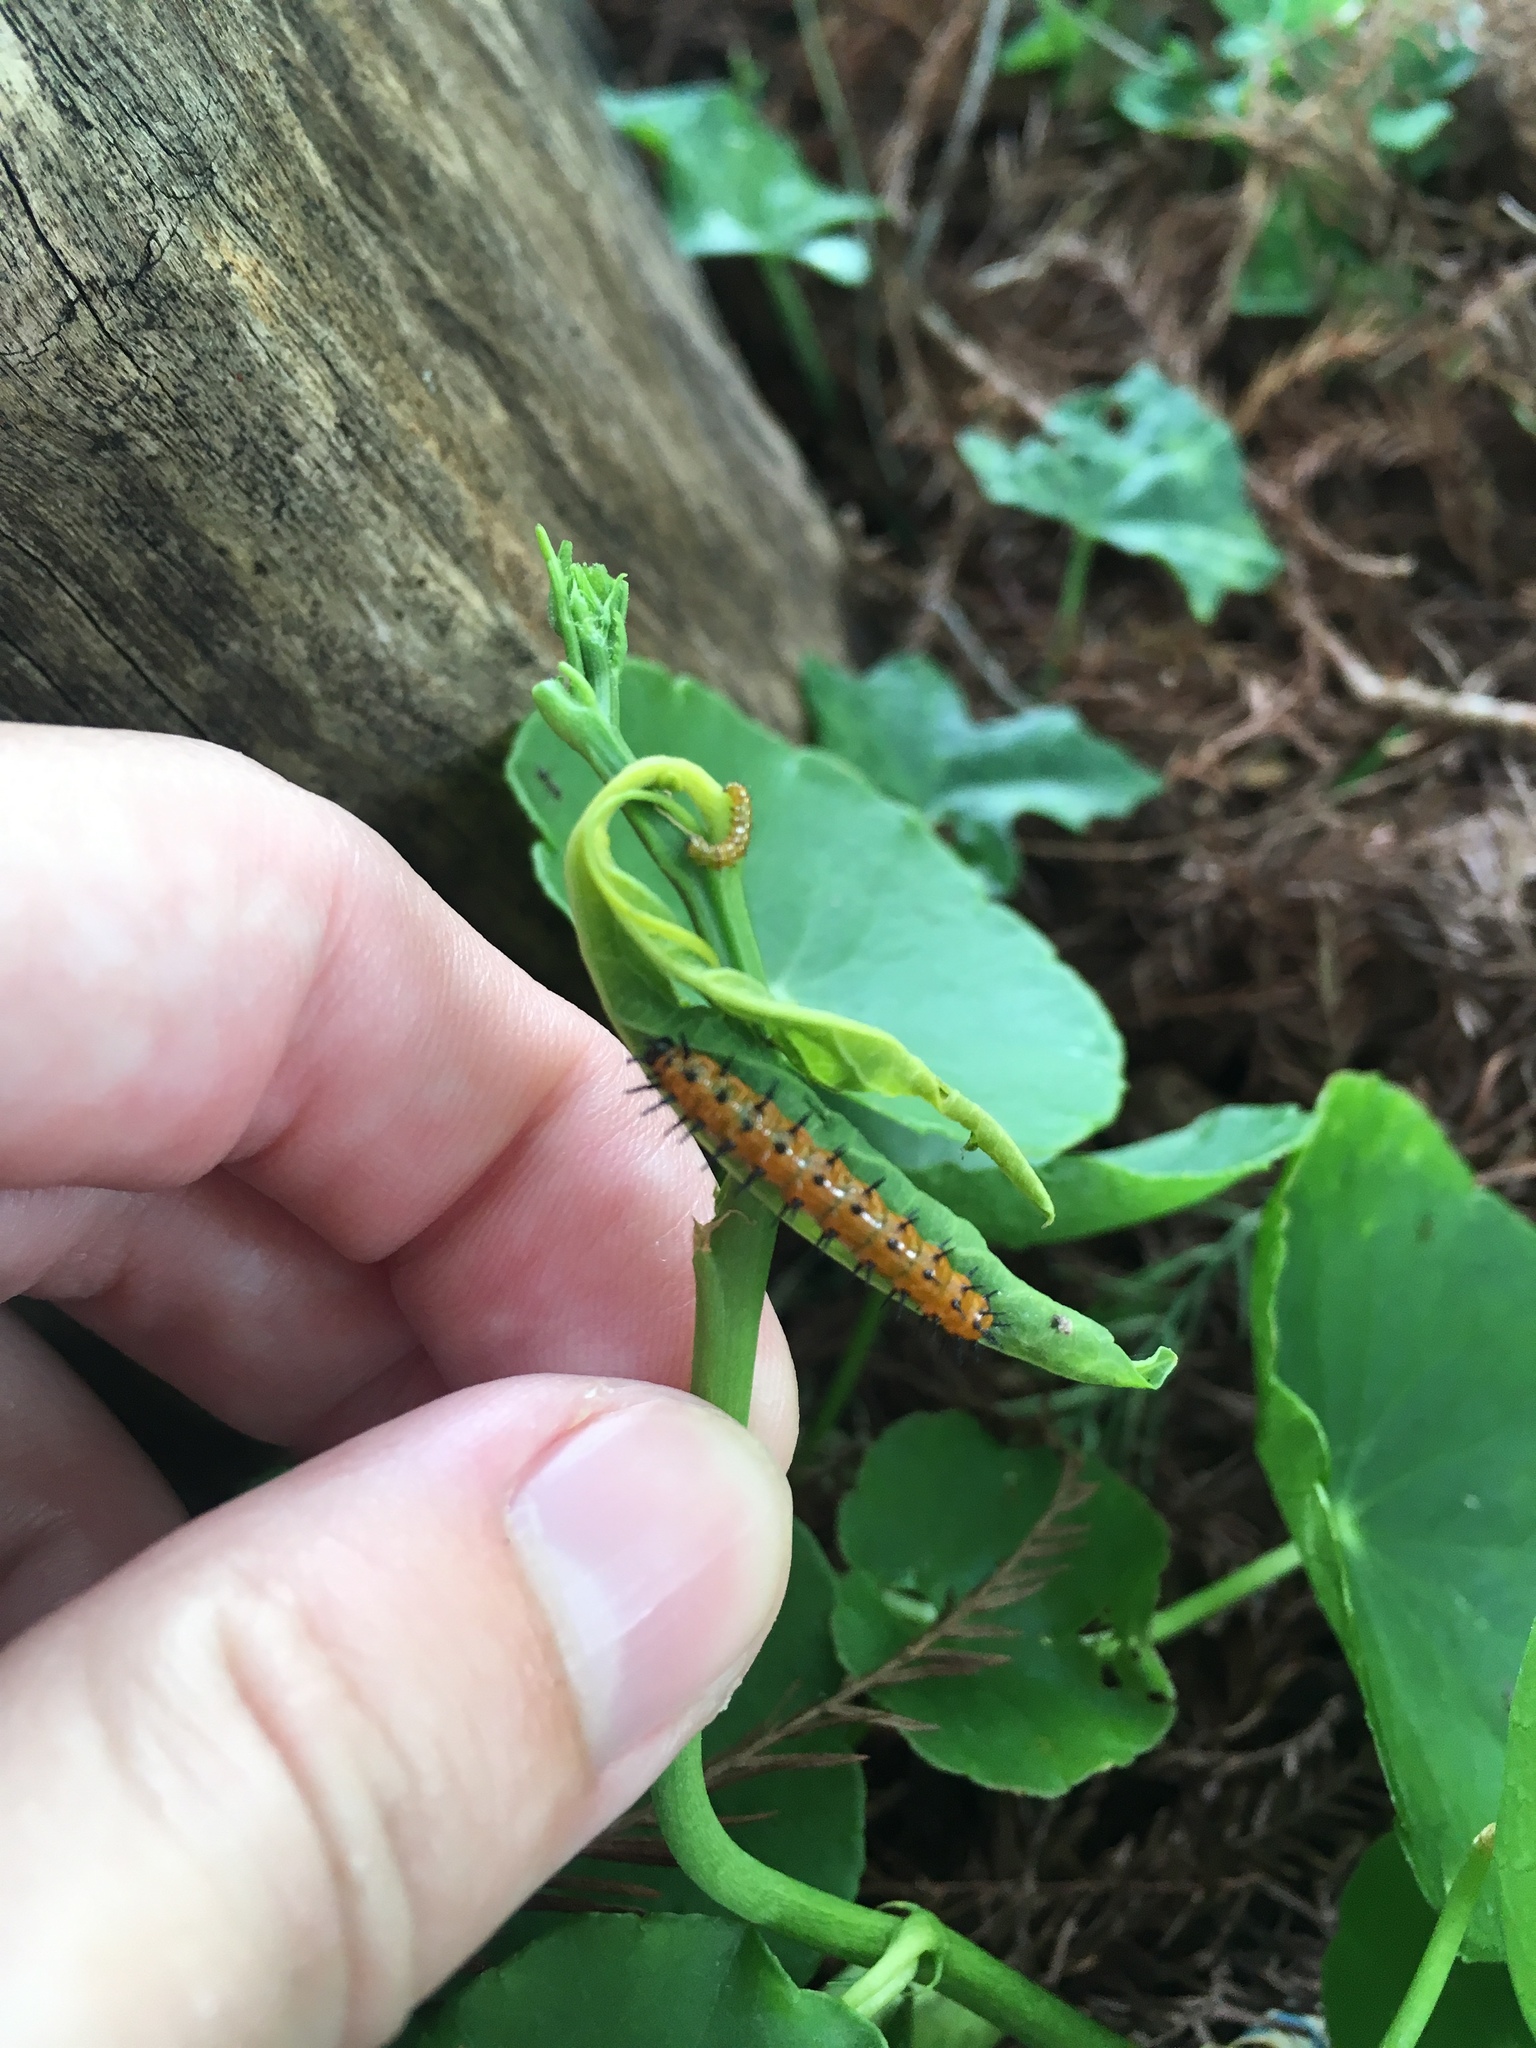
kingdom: Animalia
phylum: Arthropoda
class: Insecta
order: Lepidoptera
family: Nymphalidae
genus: Dione
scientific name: Dione vanillae
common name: Gulf fritillary
